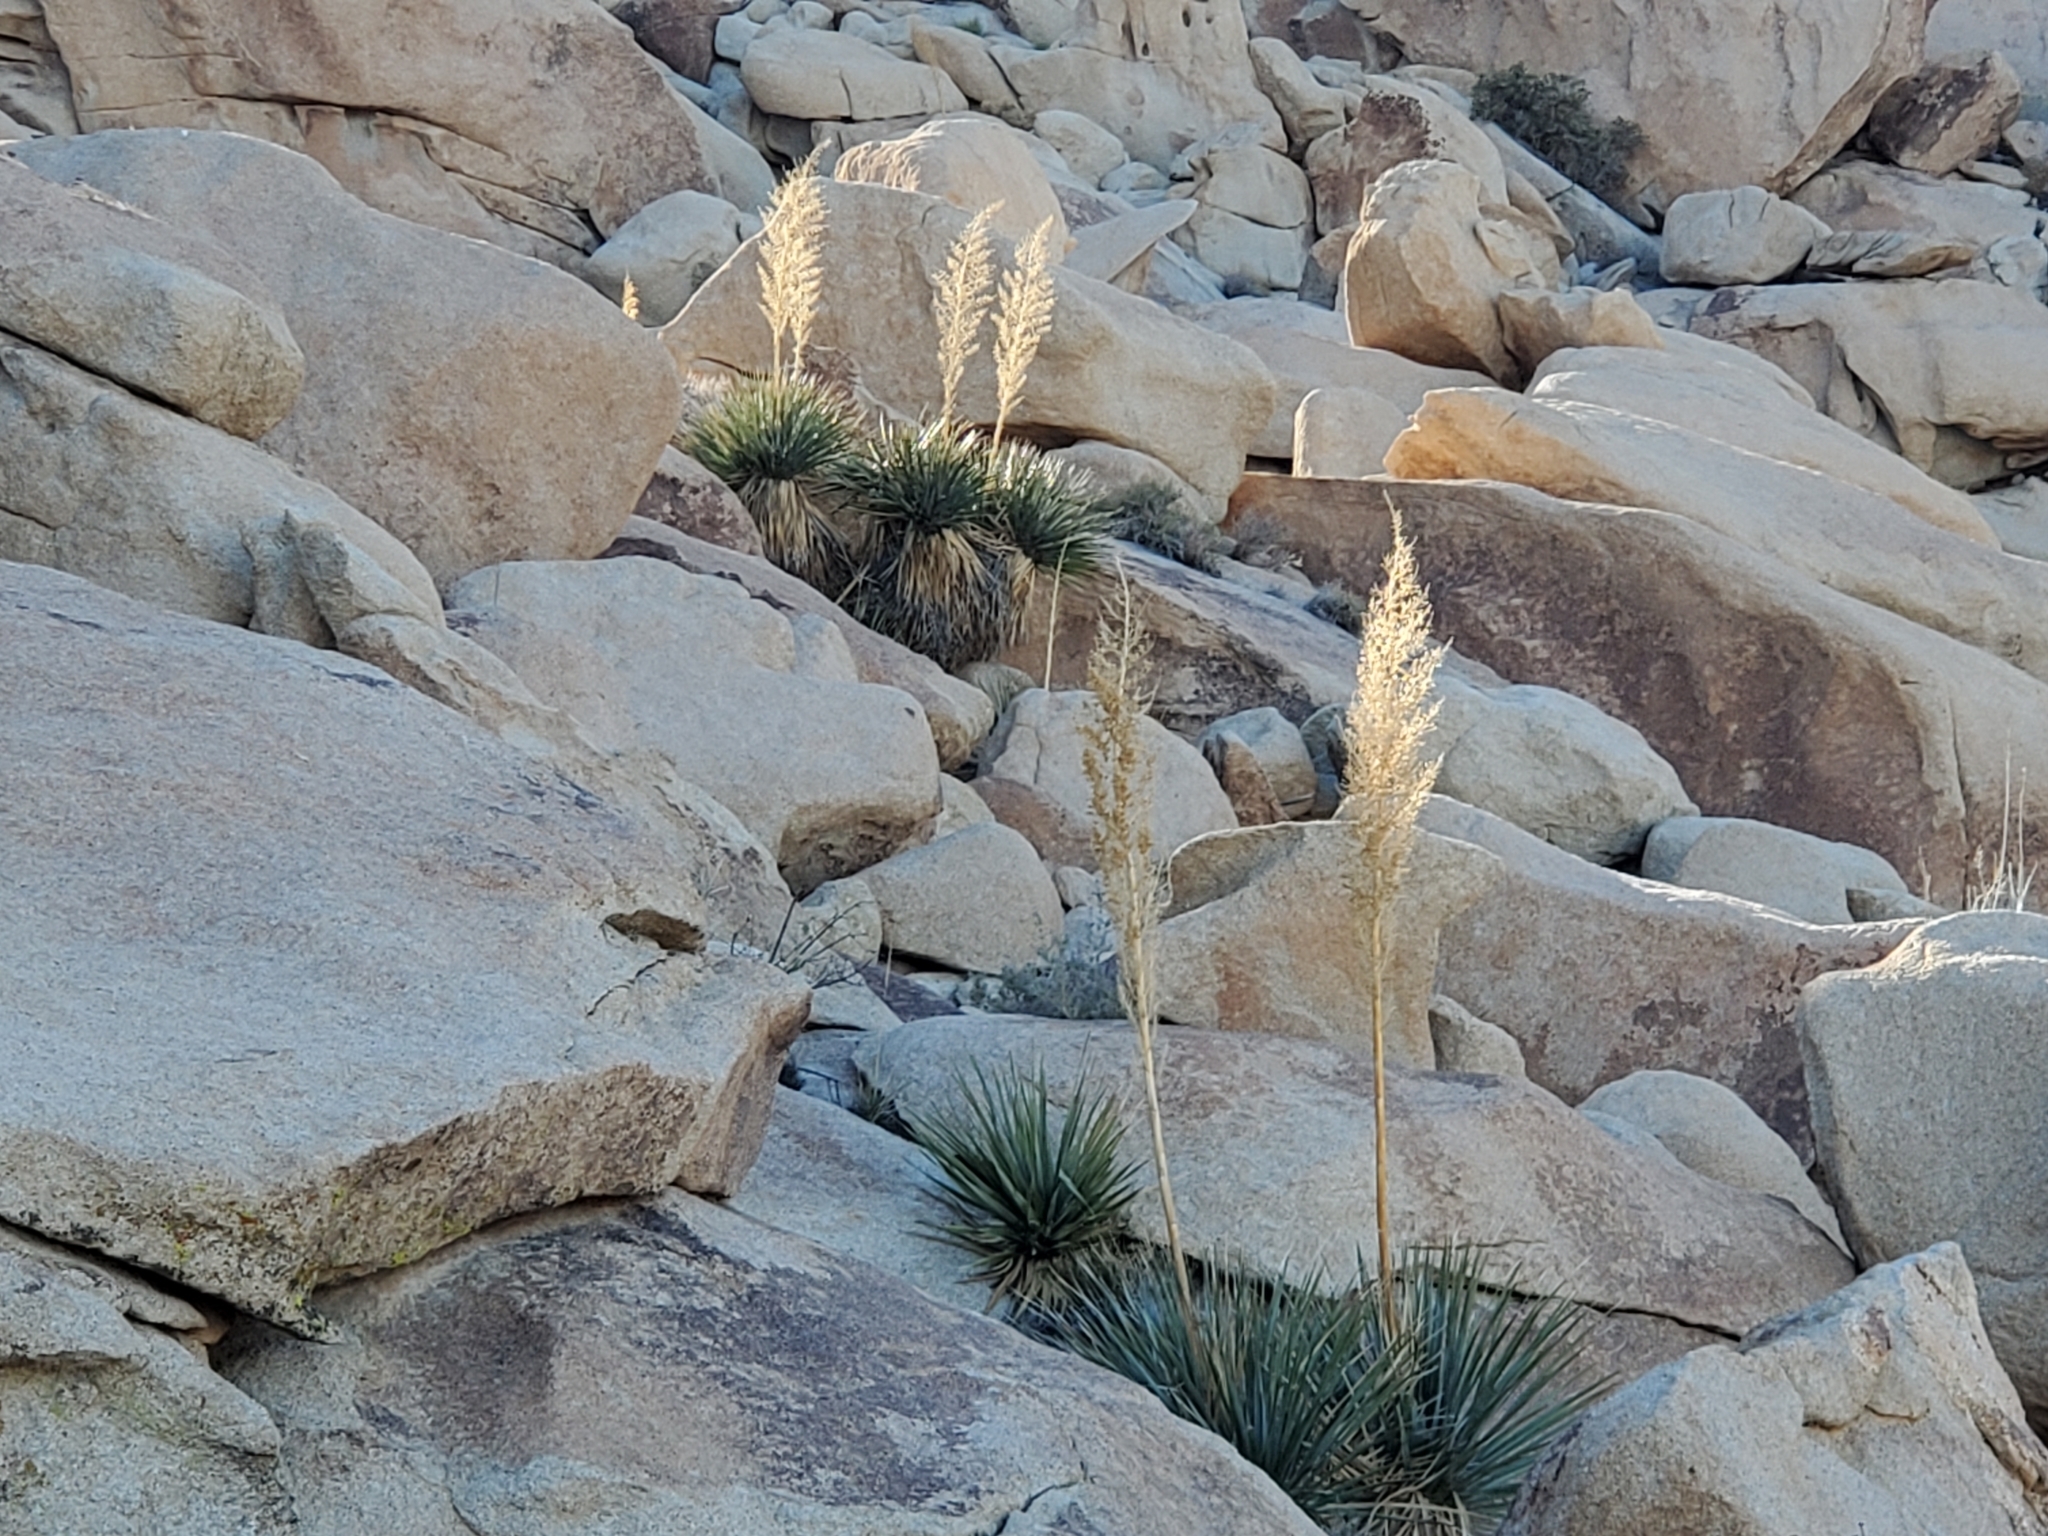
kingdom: Plantae
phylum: Tracheophyta
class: Liliopsida
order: Asparagales
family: Asparagaceae
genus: Nolina
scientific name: Nolina bigelovii
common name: Bigelow bear-grass
